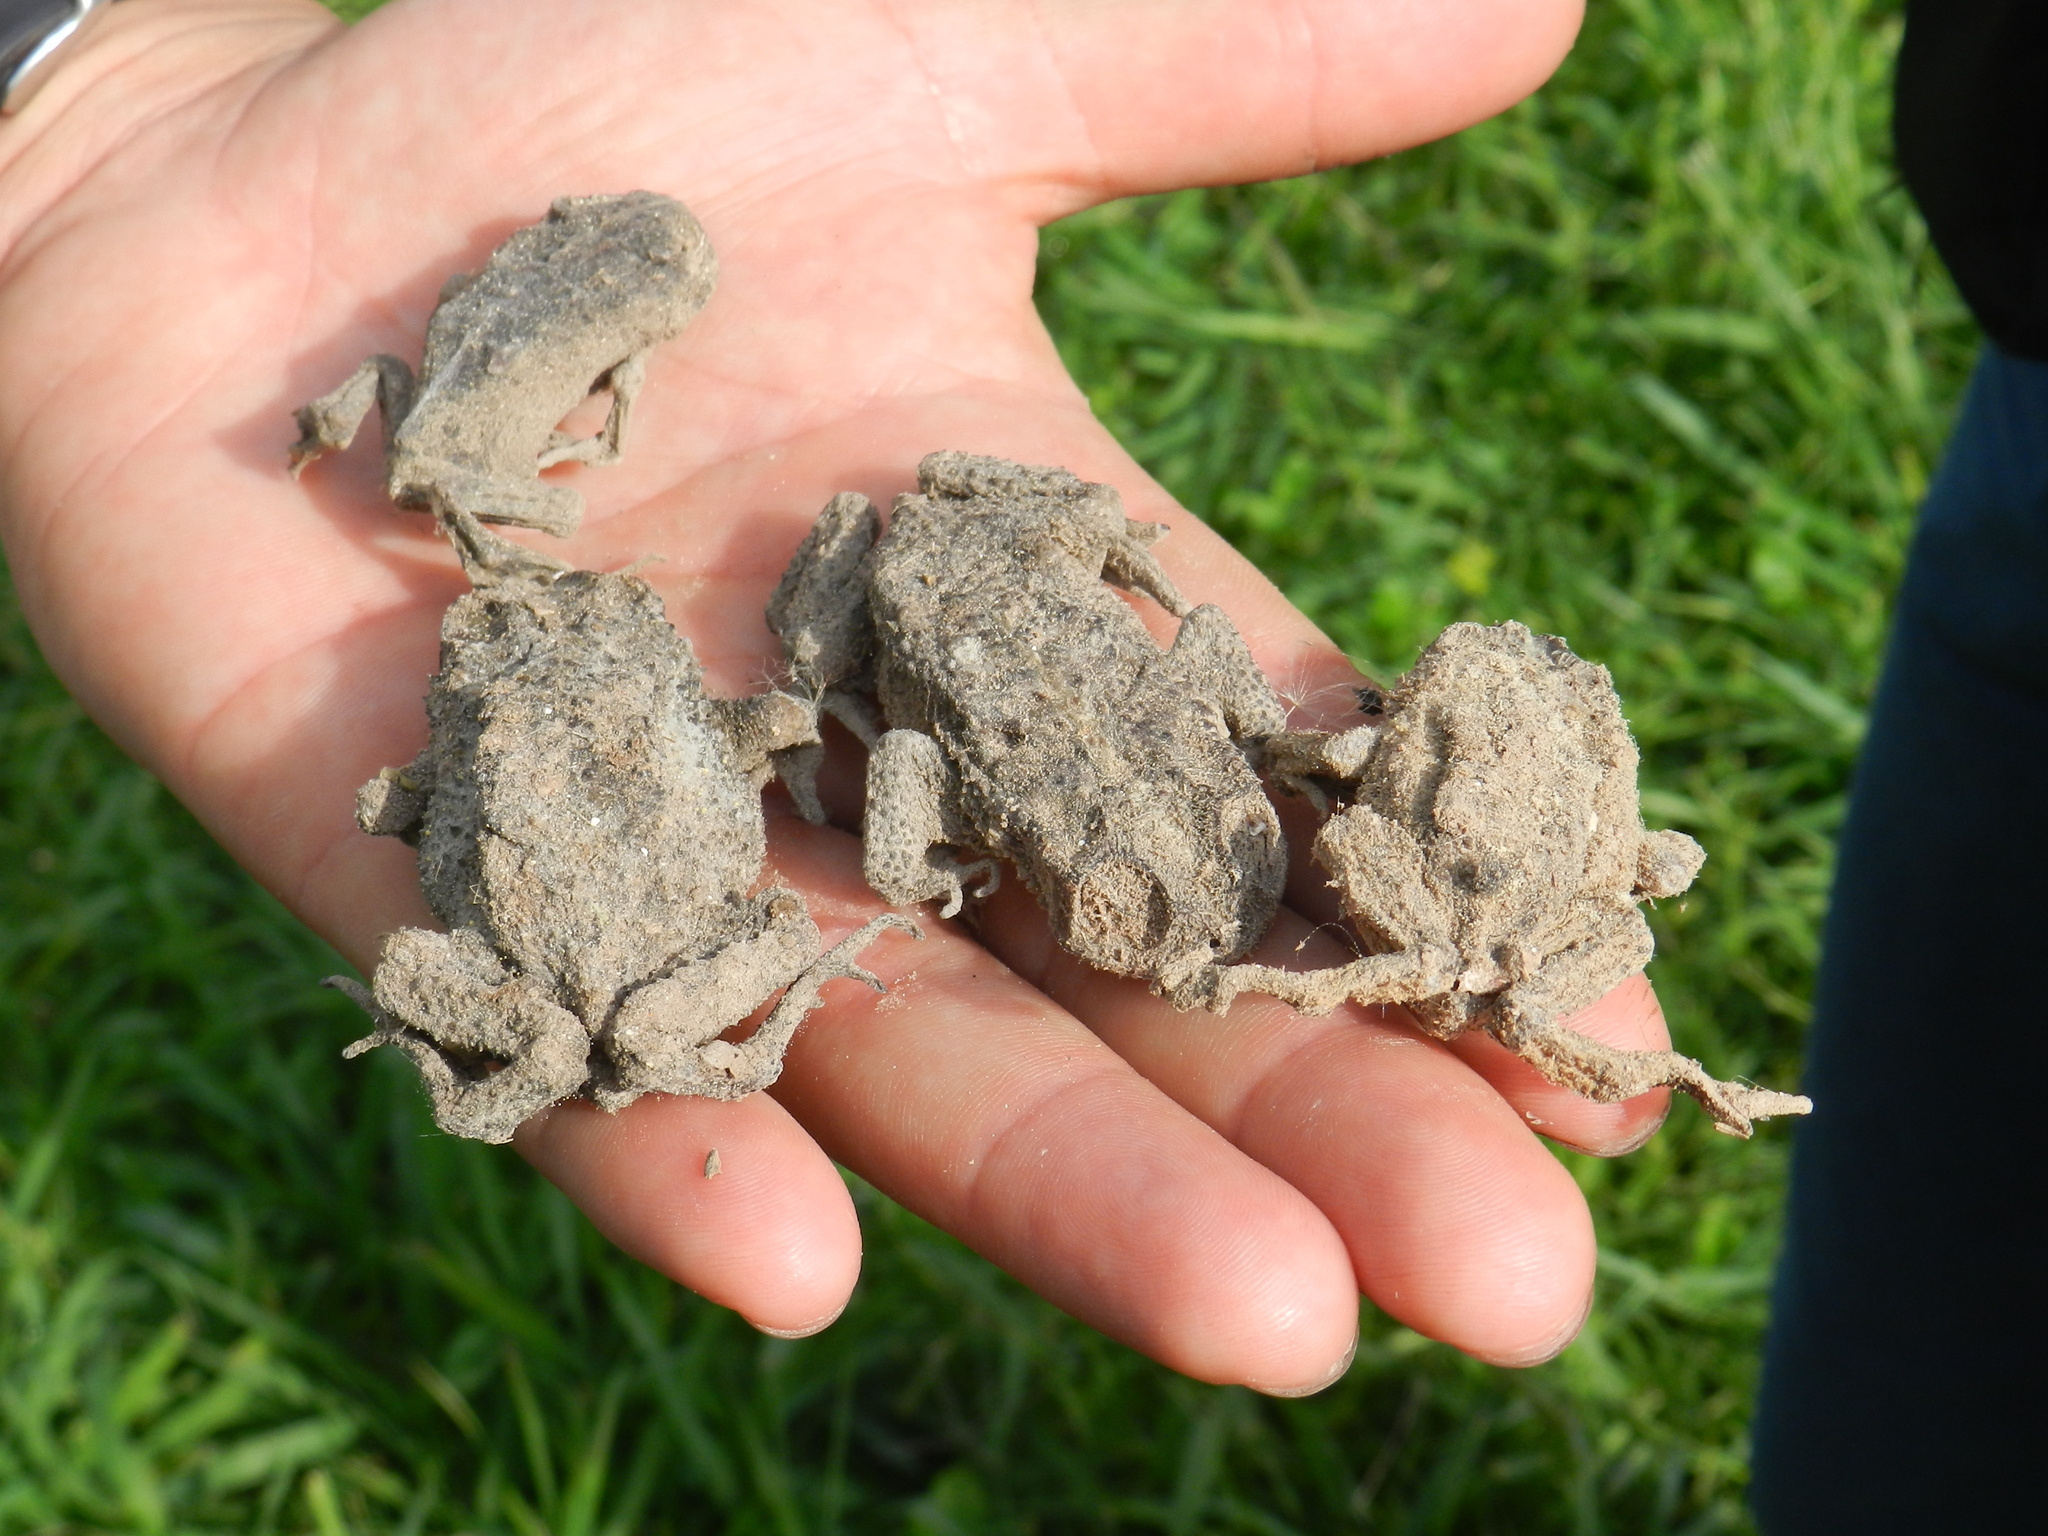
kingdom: Animalia
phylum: Chordata
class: Amphibia
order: Anura
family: Bufonidae
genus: Rhinella
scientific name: Rhinella dorbignyi
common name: D´orbigny’s toad
